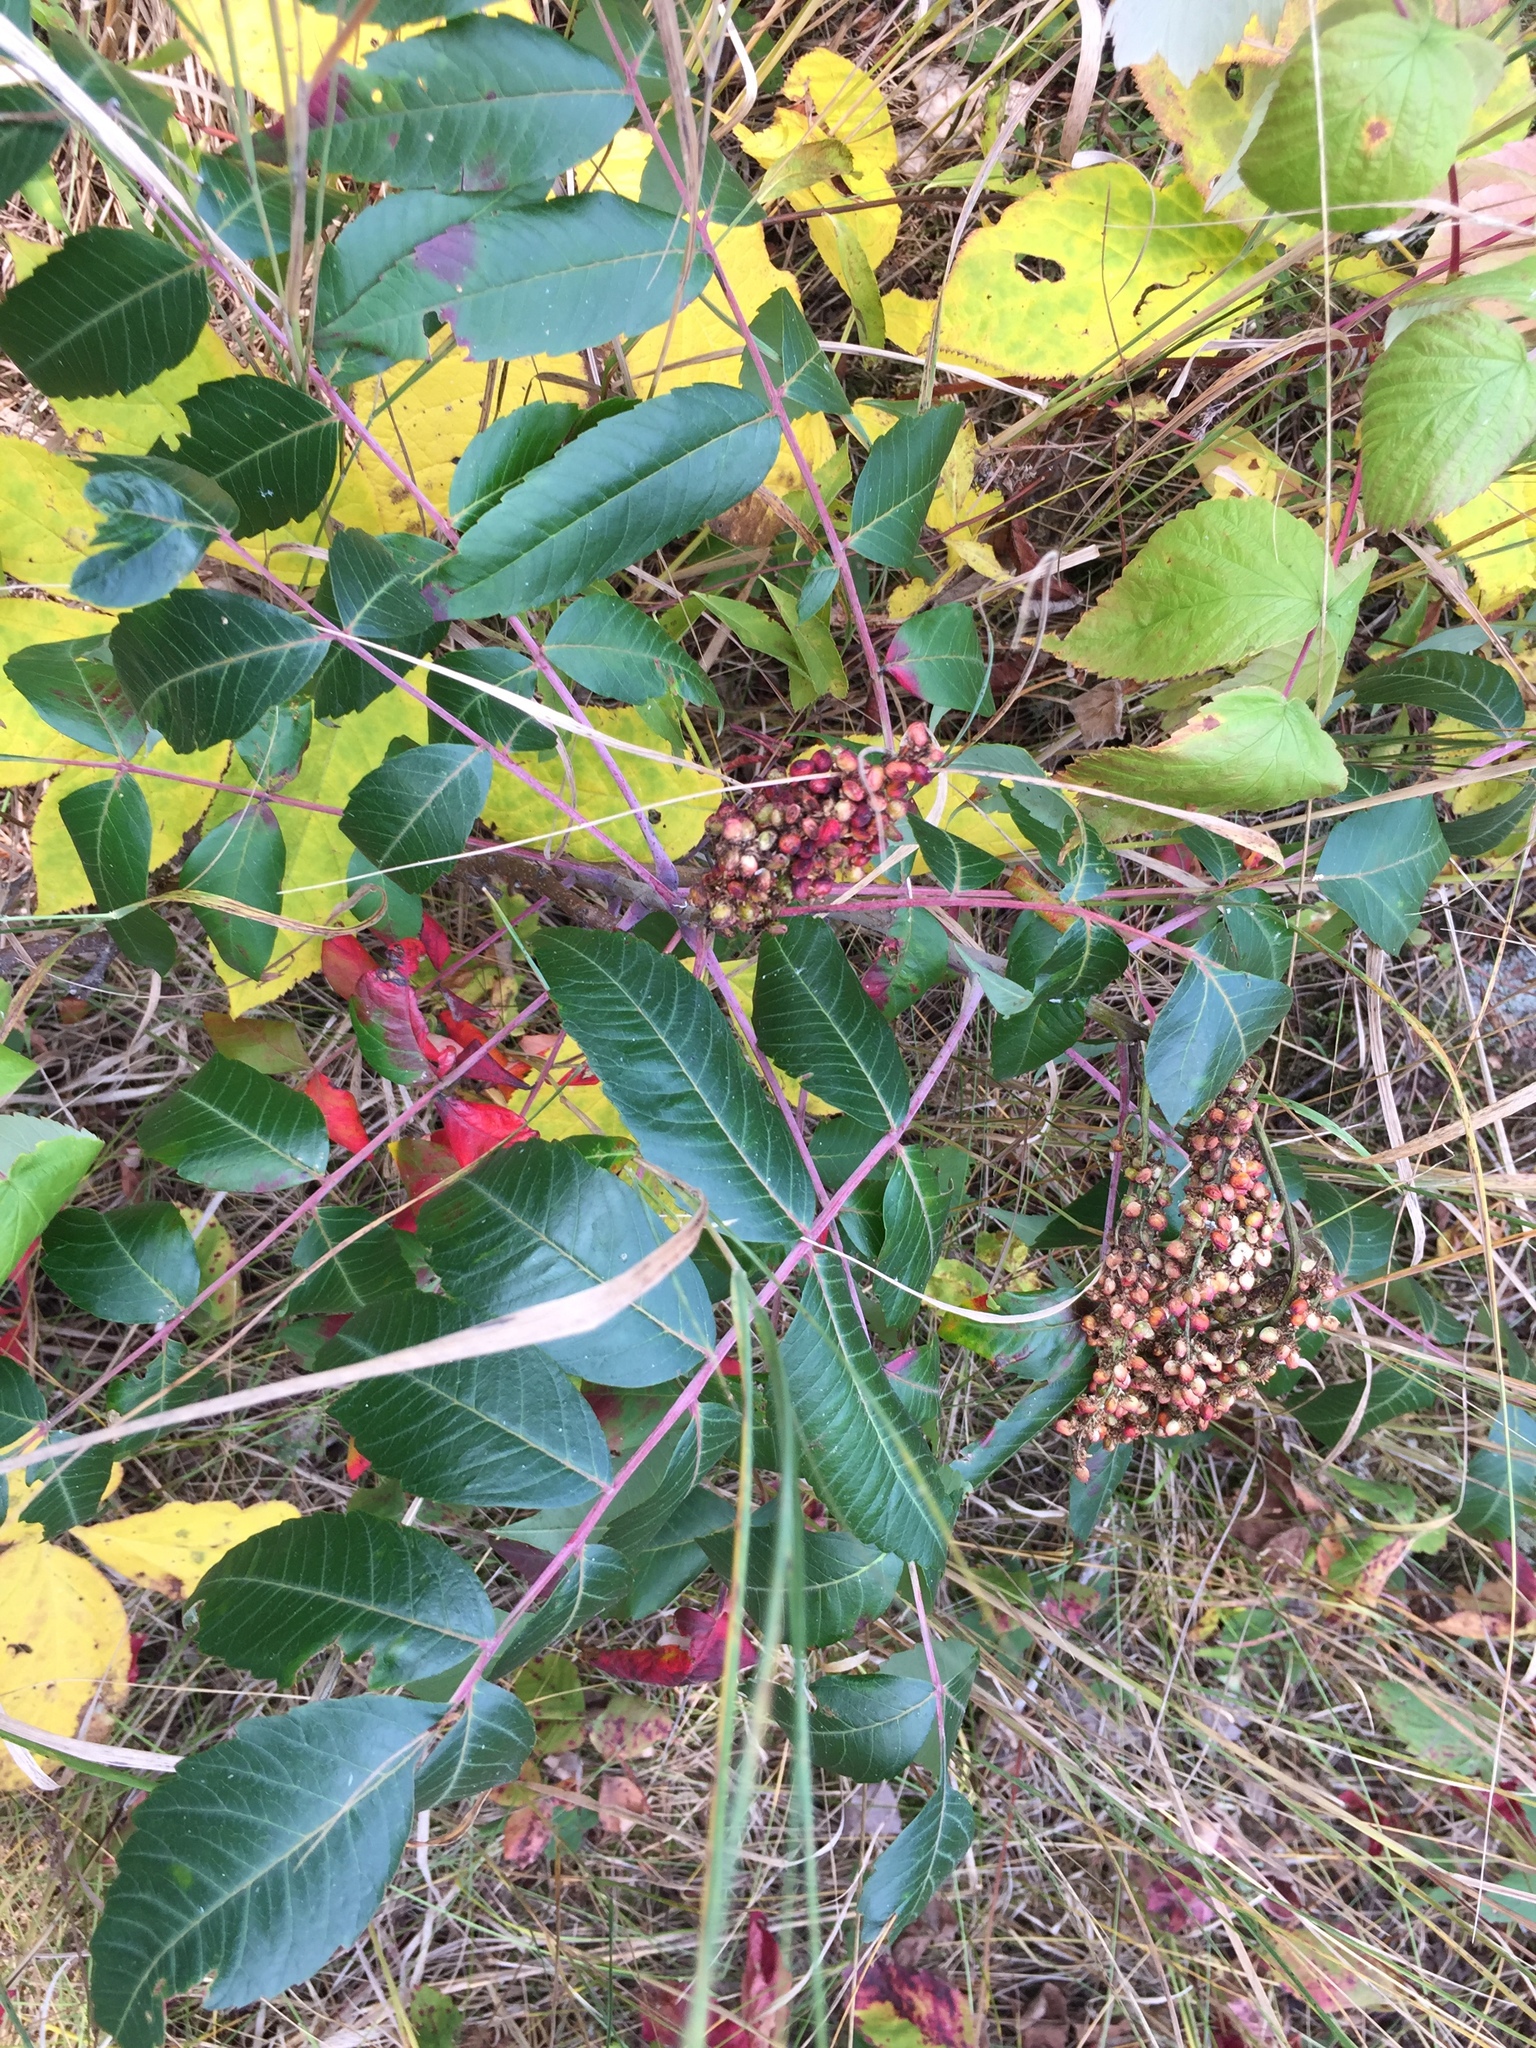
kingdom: Plantae
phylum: Tracheophyta
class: Magnoliopsida
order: Sapindales
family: Anacardiaceae
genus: Rhus
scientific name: Rhus glabra
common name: Scarlet sumac
